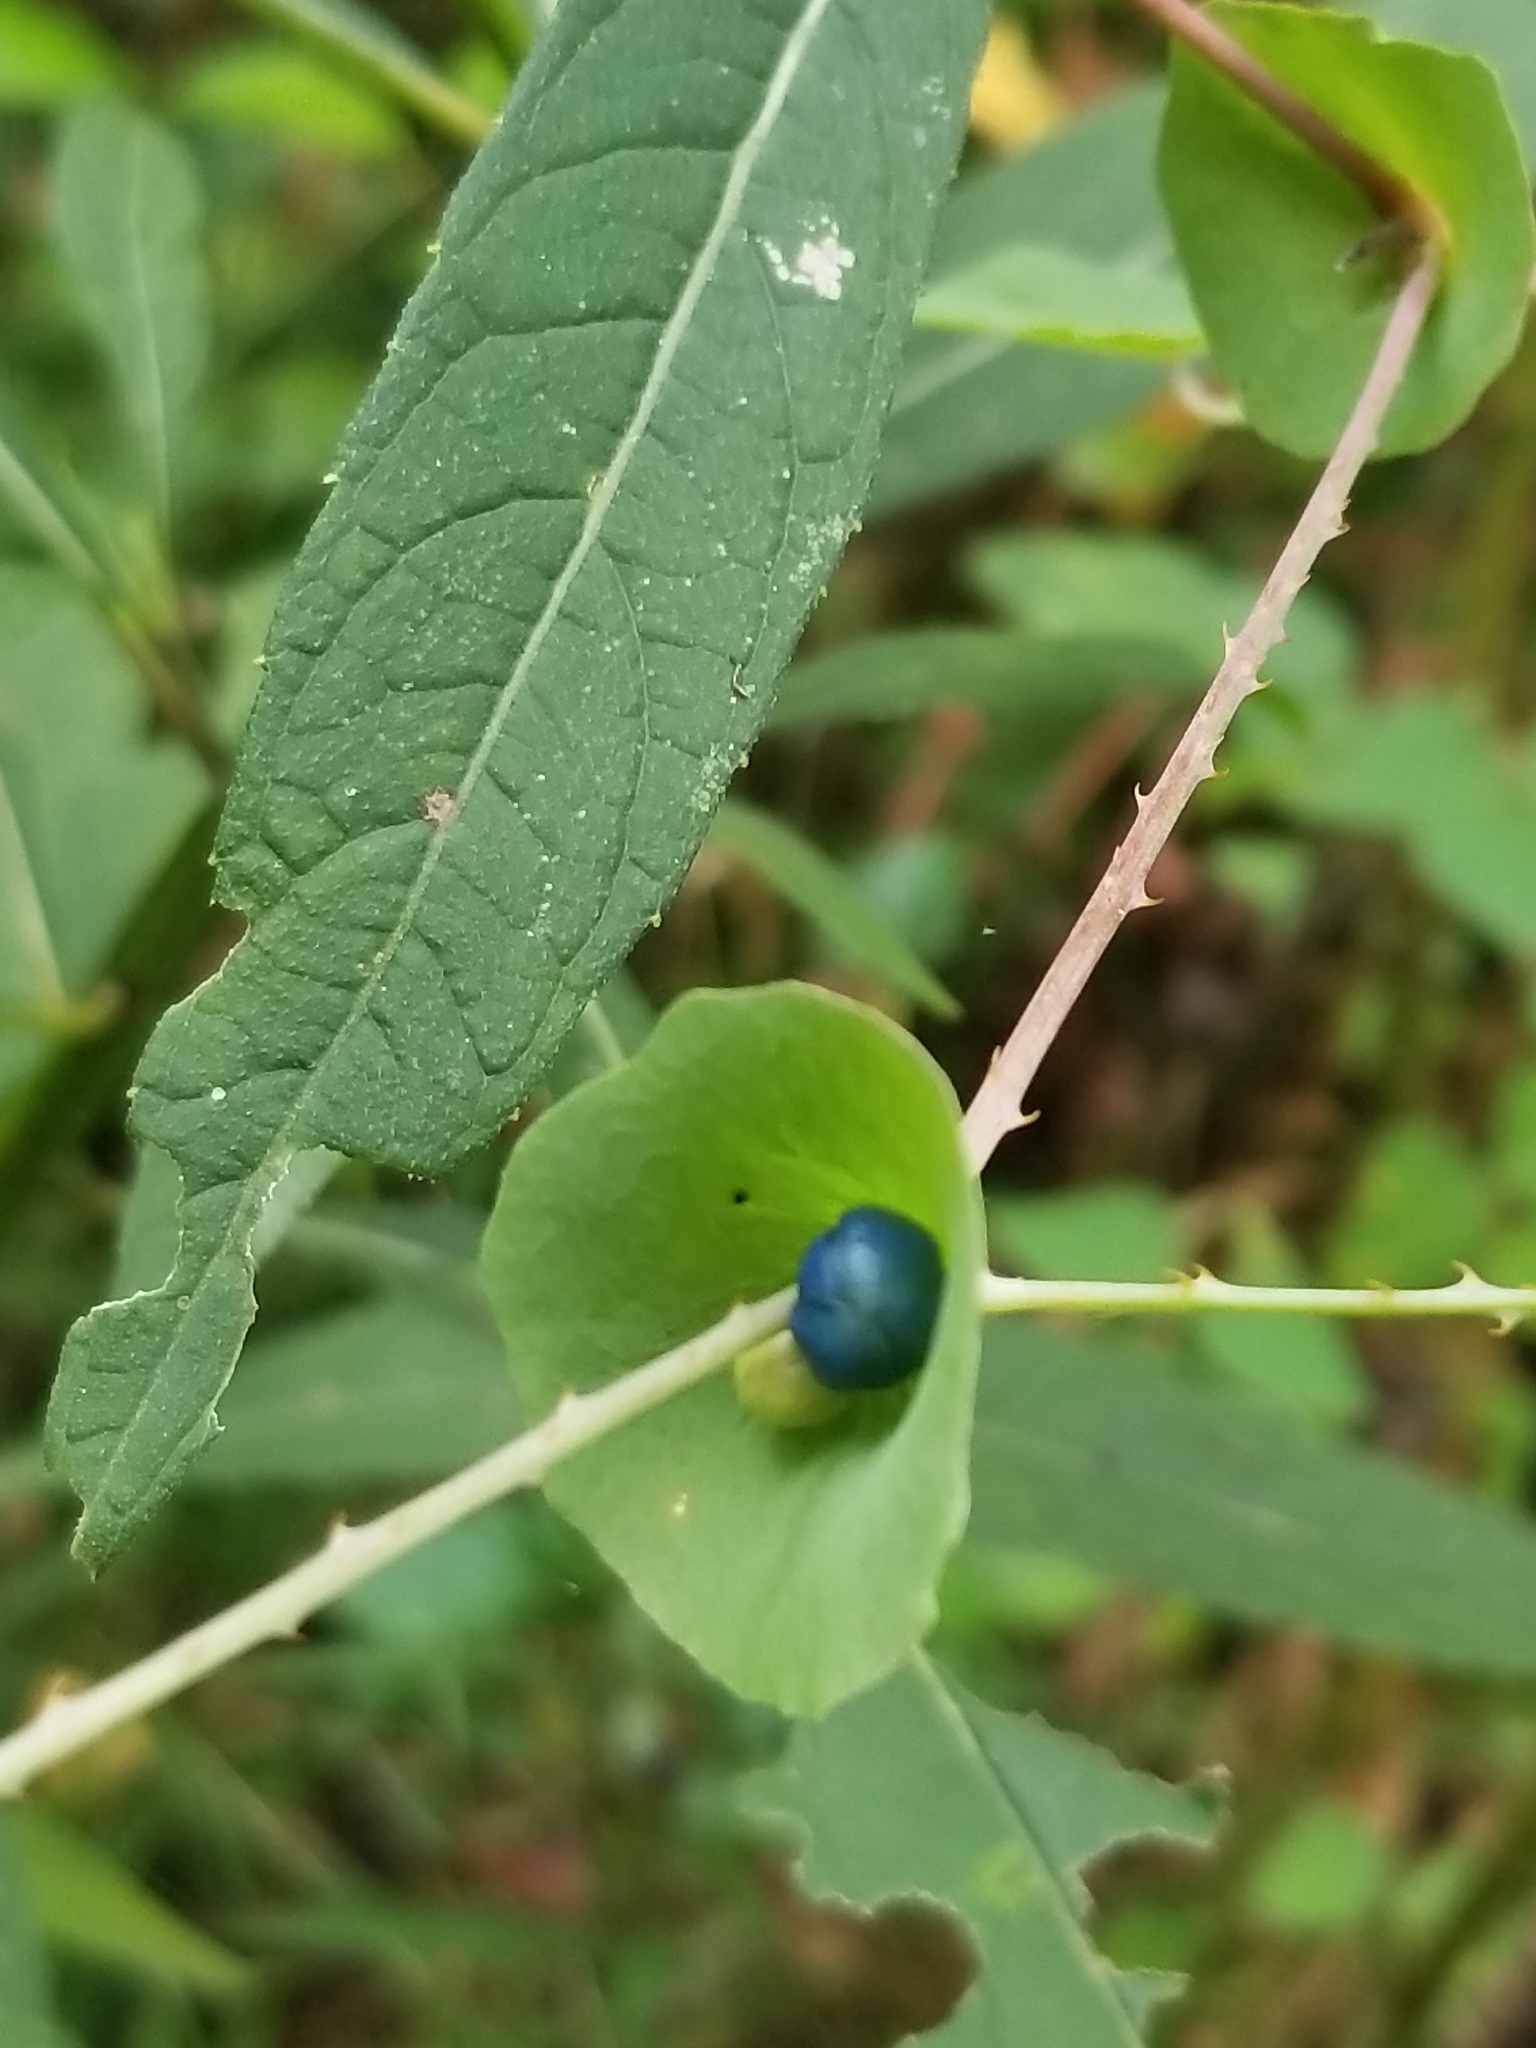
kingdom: Plantae
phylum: Tracheophyta
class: Magnoliopsida
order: Caryophyllales
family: Polygonaceae
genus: Persicaria
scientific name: Persicaria perfoliata
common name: Asiatic tearthumb
